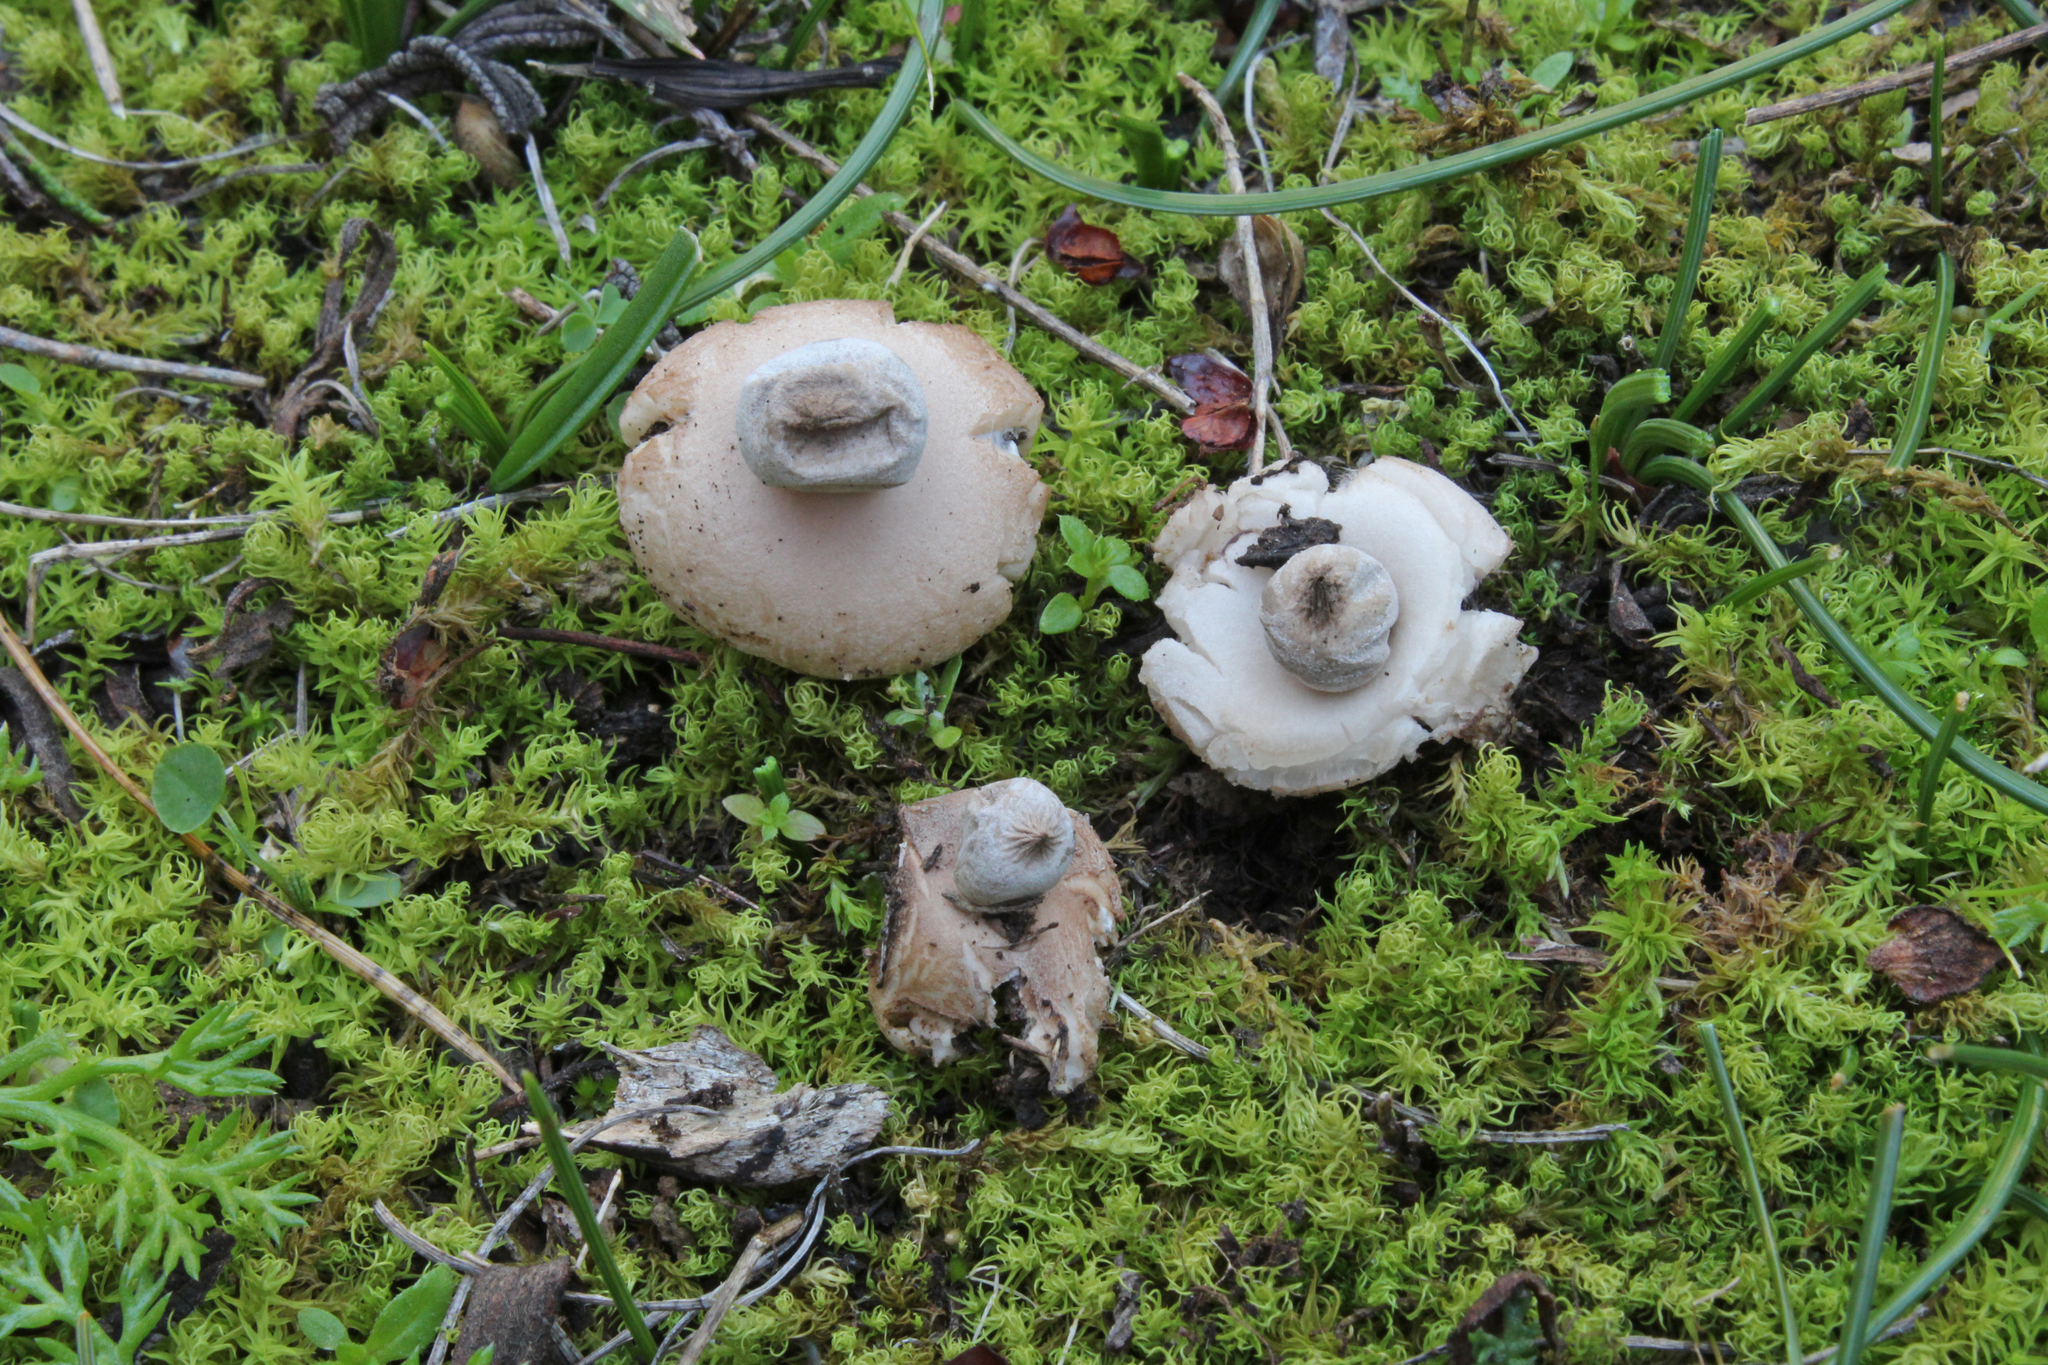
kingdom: Fungi
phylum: Basidiomycota
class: Agaricomycetes
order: Geastrales
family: Geastraceae
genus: Geastrum
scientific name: Geastrum elegans
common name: Elegant earthstar
